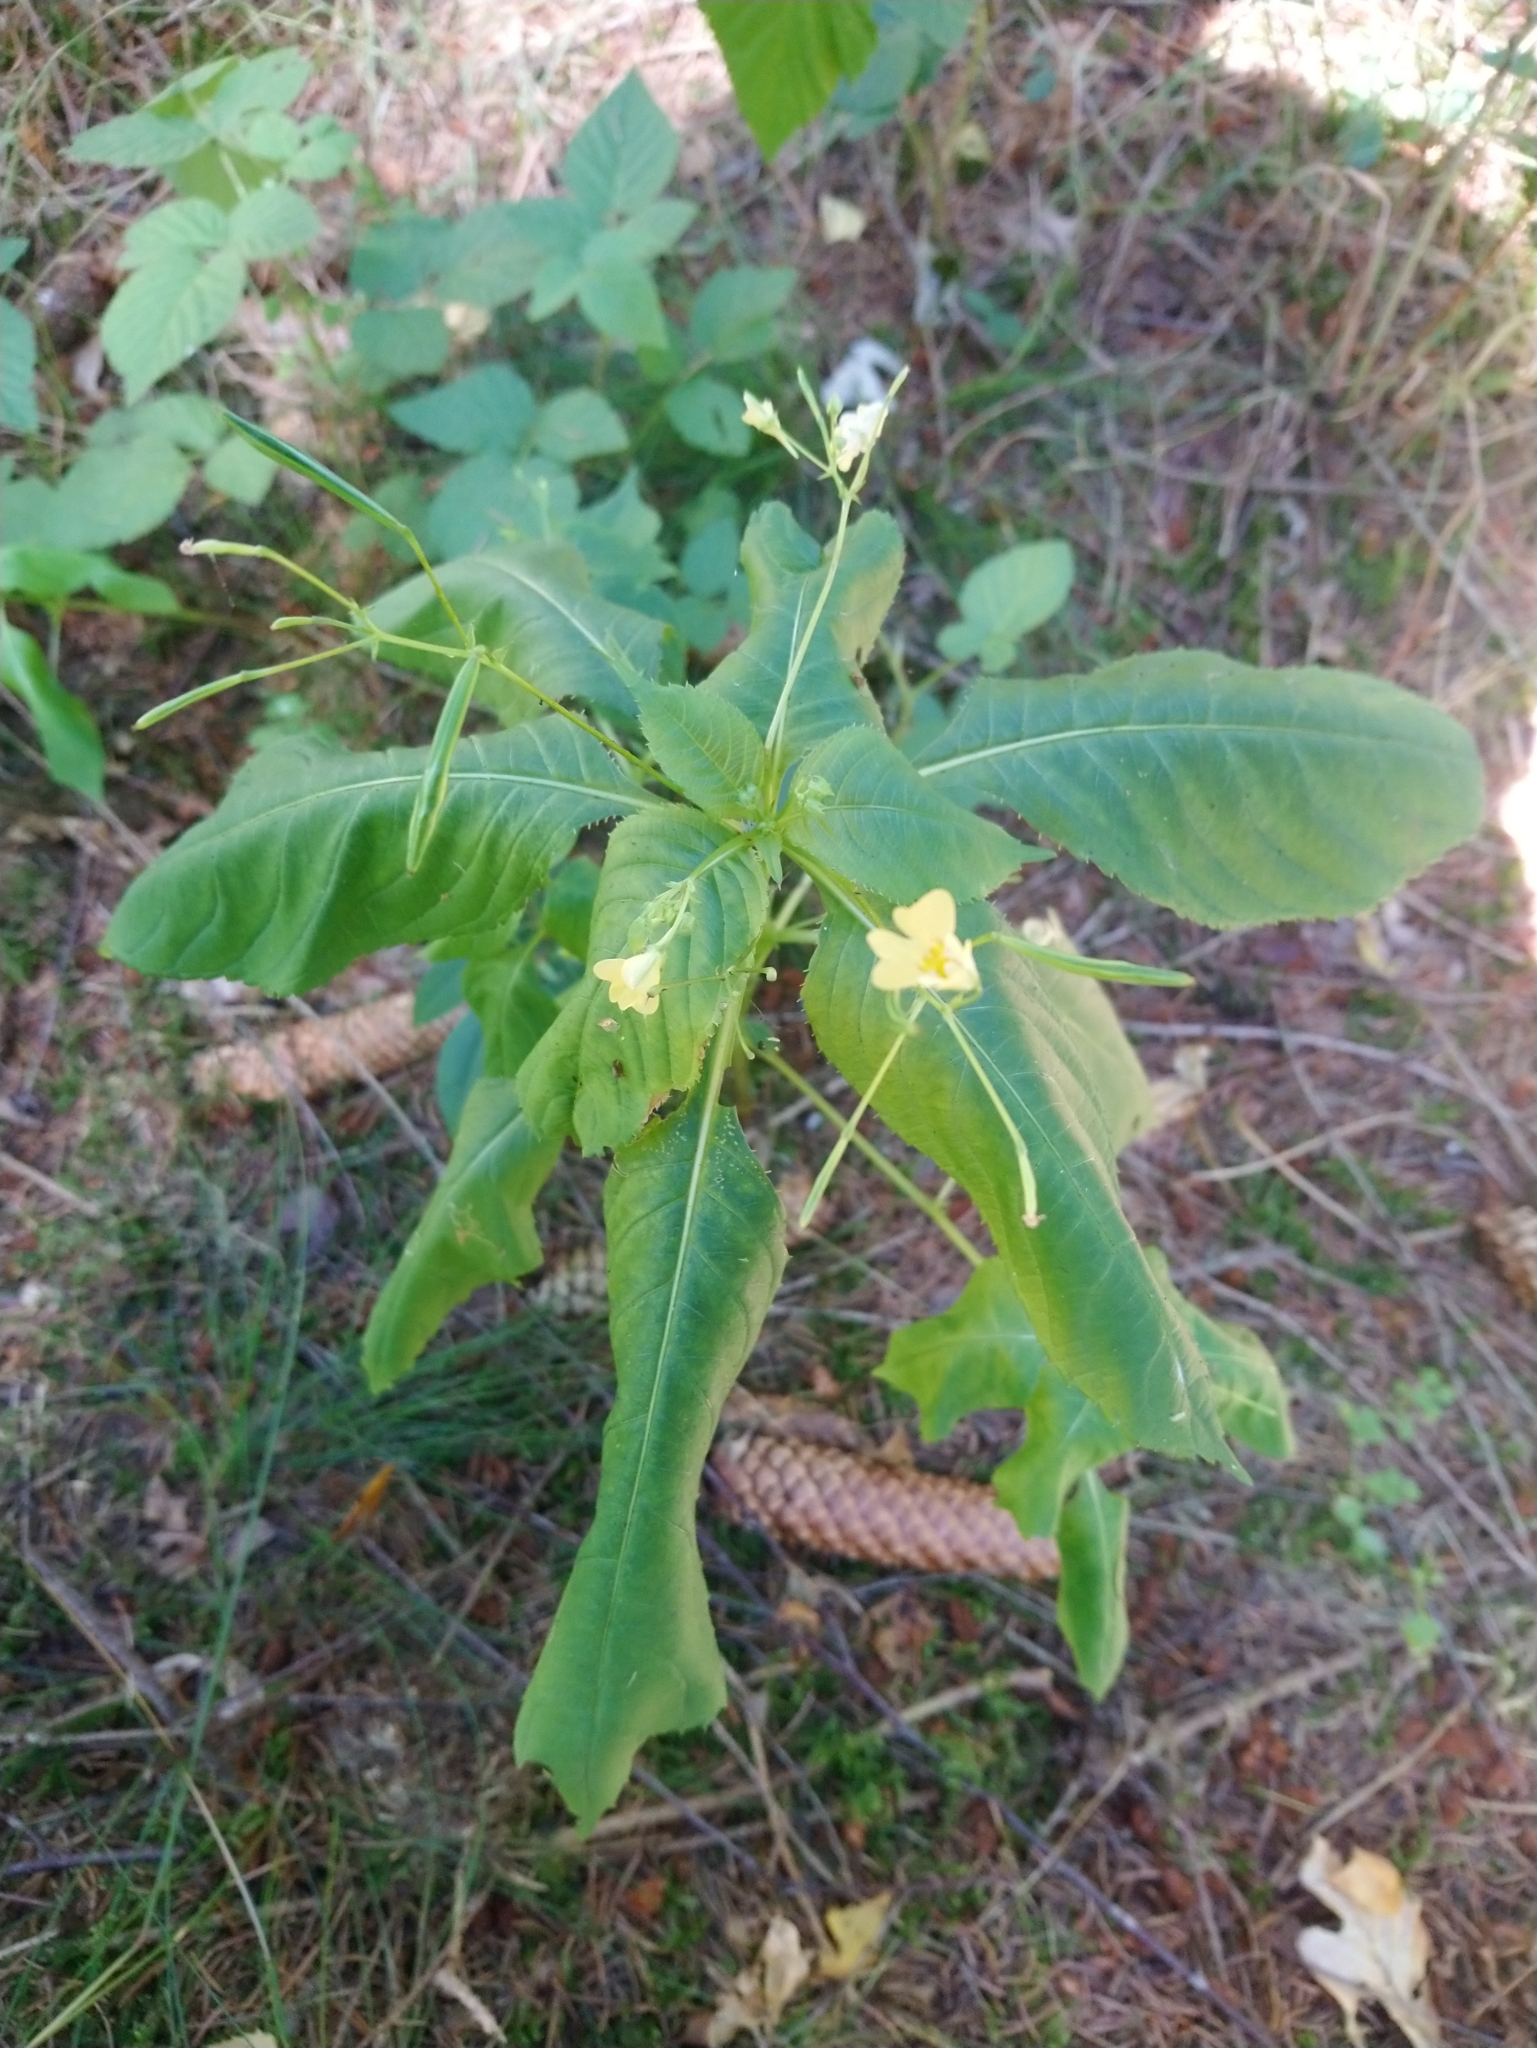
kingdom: Plantae
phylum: Tracheophyta
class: Magnoliopsida
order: Ericales
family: Balsaminaceae
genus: Impatiens
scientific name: Impatiens parviflora
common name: Small balsam
